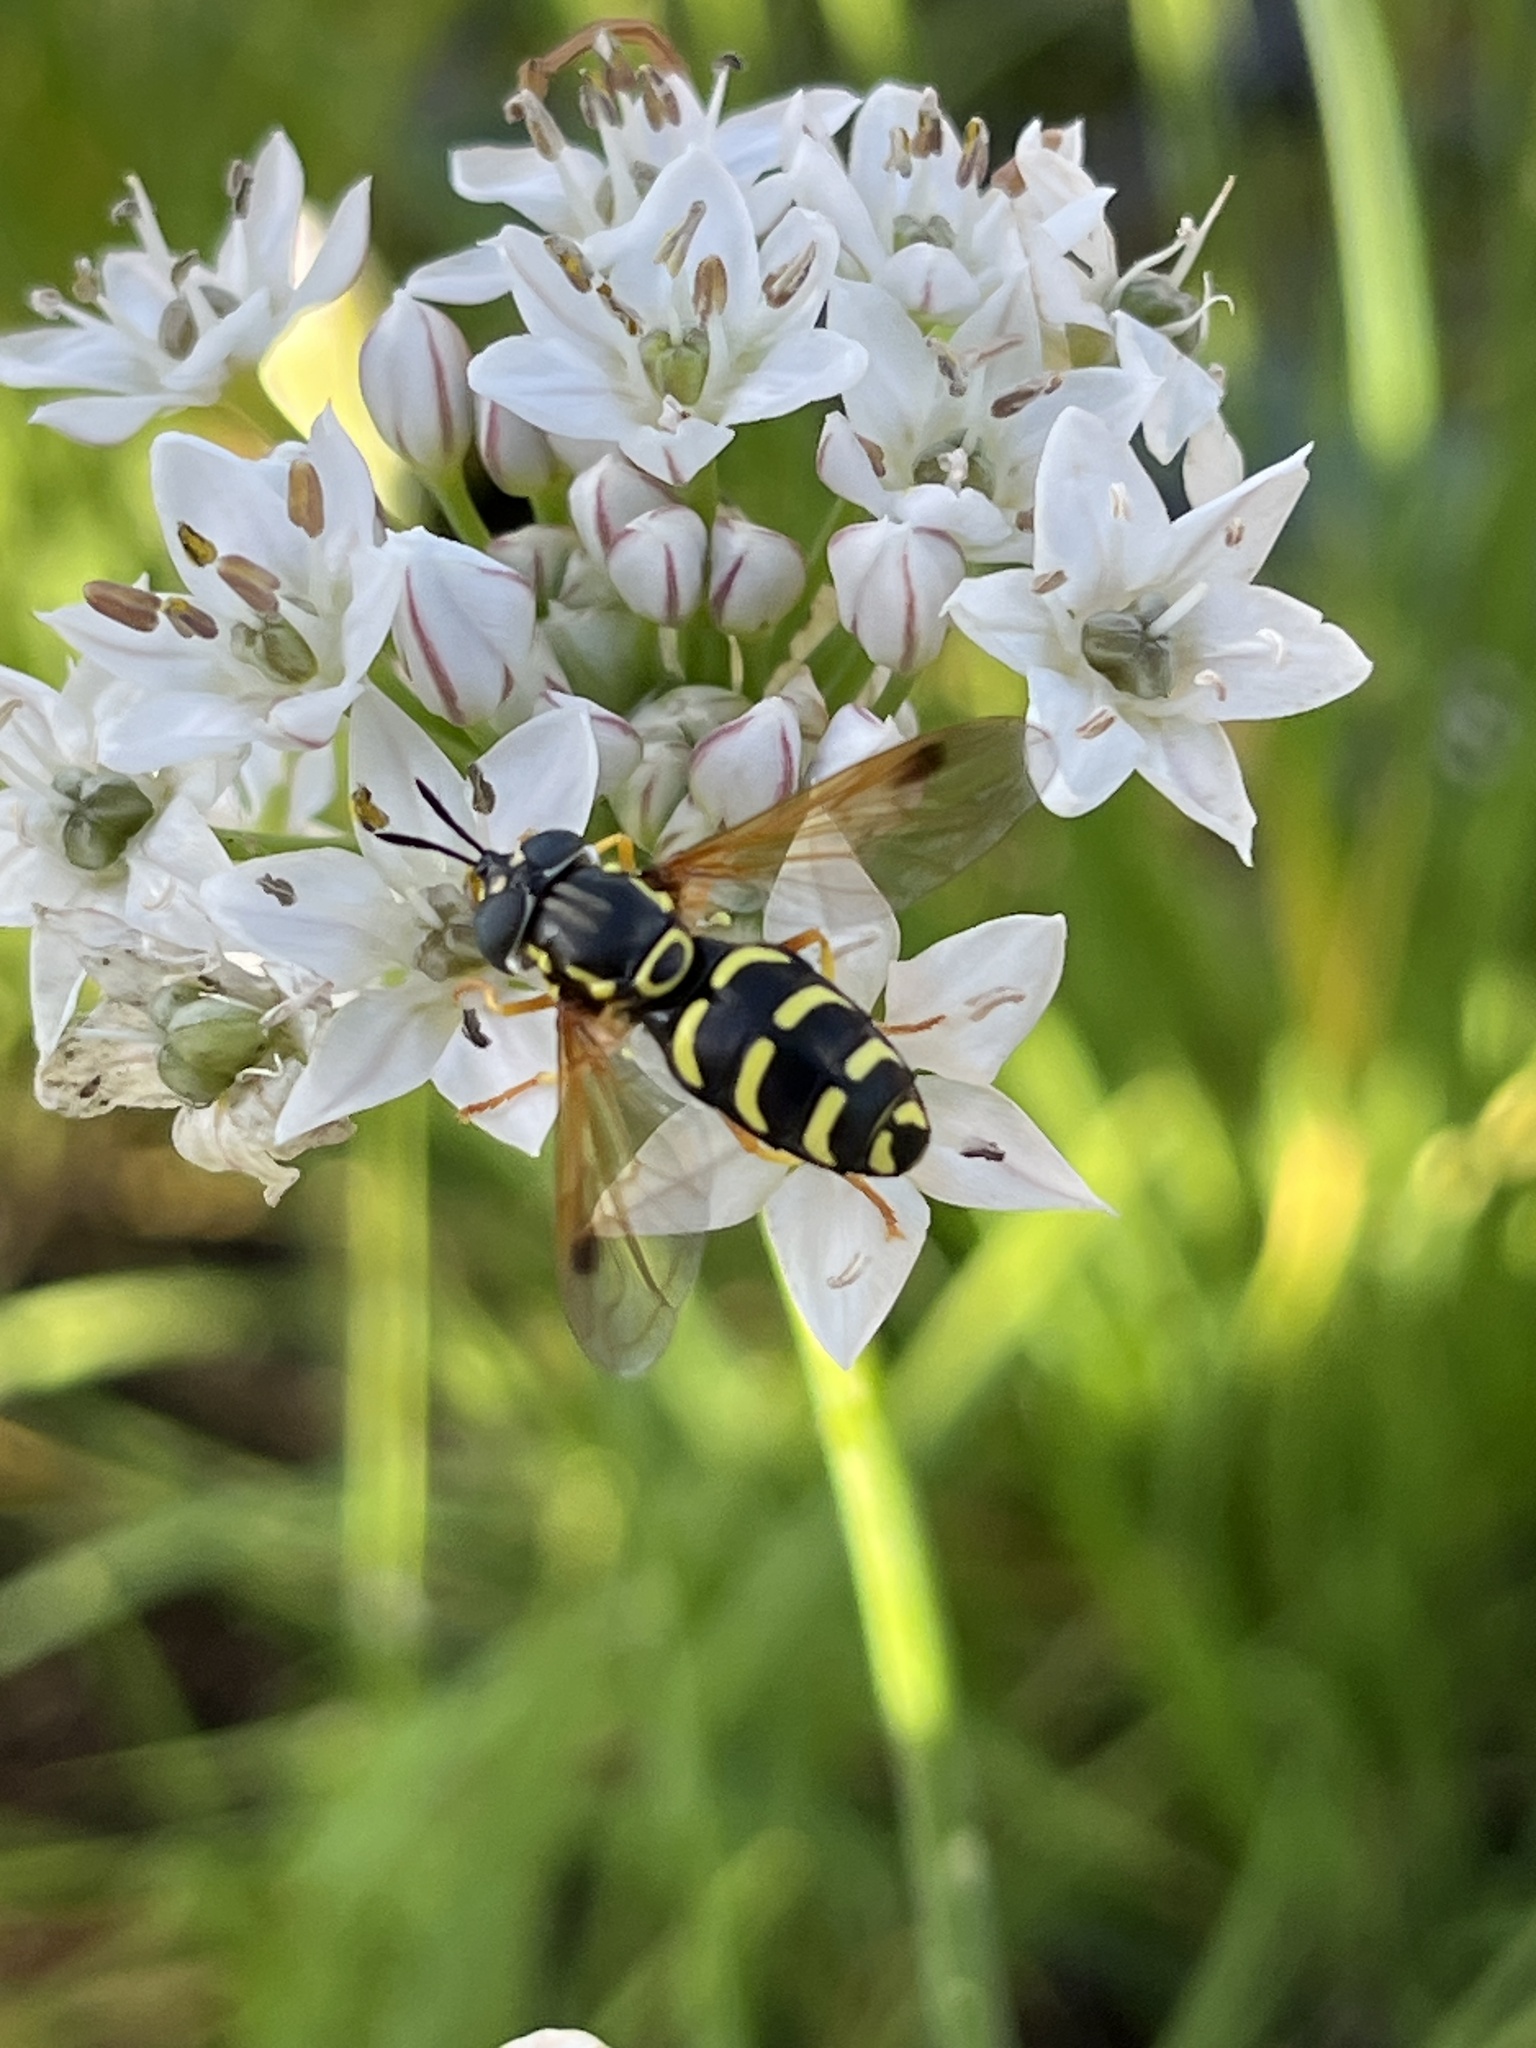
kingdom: Animalia
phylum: Arthropoda
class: Insecta
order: Diptera
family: Syrphidae
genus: Chrysotoxum
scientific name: Chrysotoxum festivum
